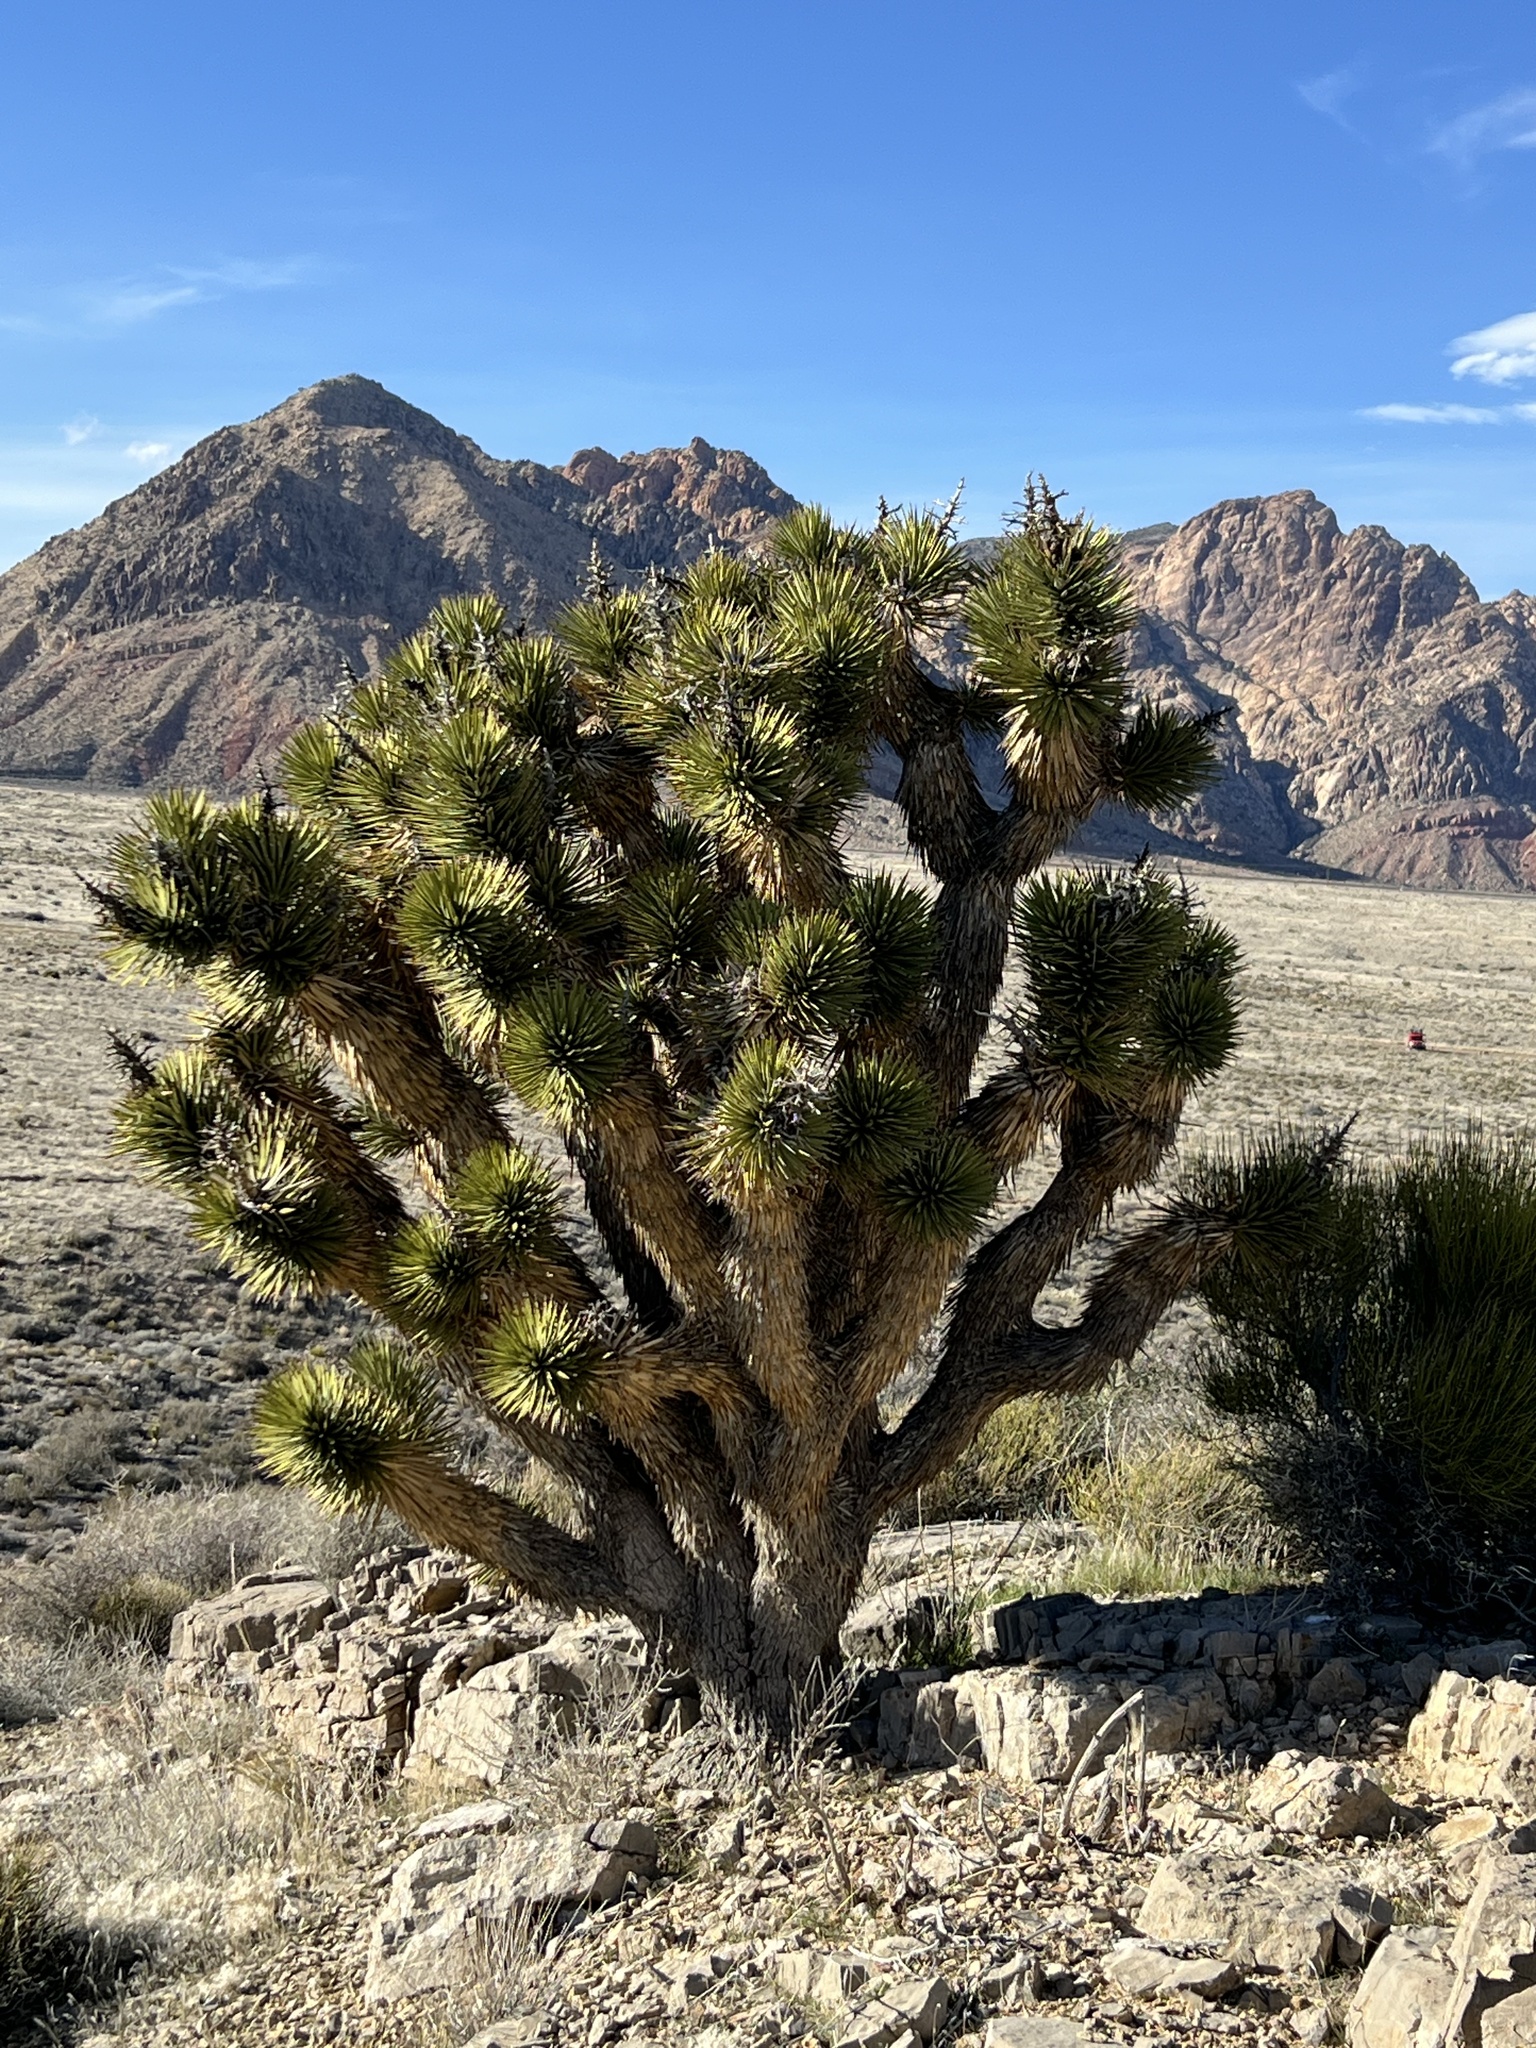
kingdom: Plantae
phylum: Tracheophyta
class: Liliopsida
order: Asparagales
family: Asparagaceae
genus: Yucca
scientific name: Yucca brevifolia
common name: Joshua tree
